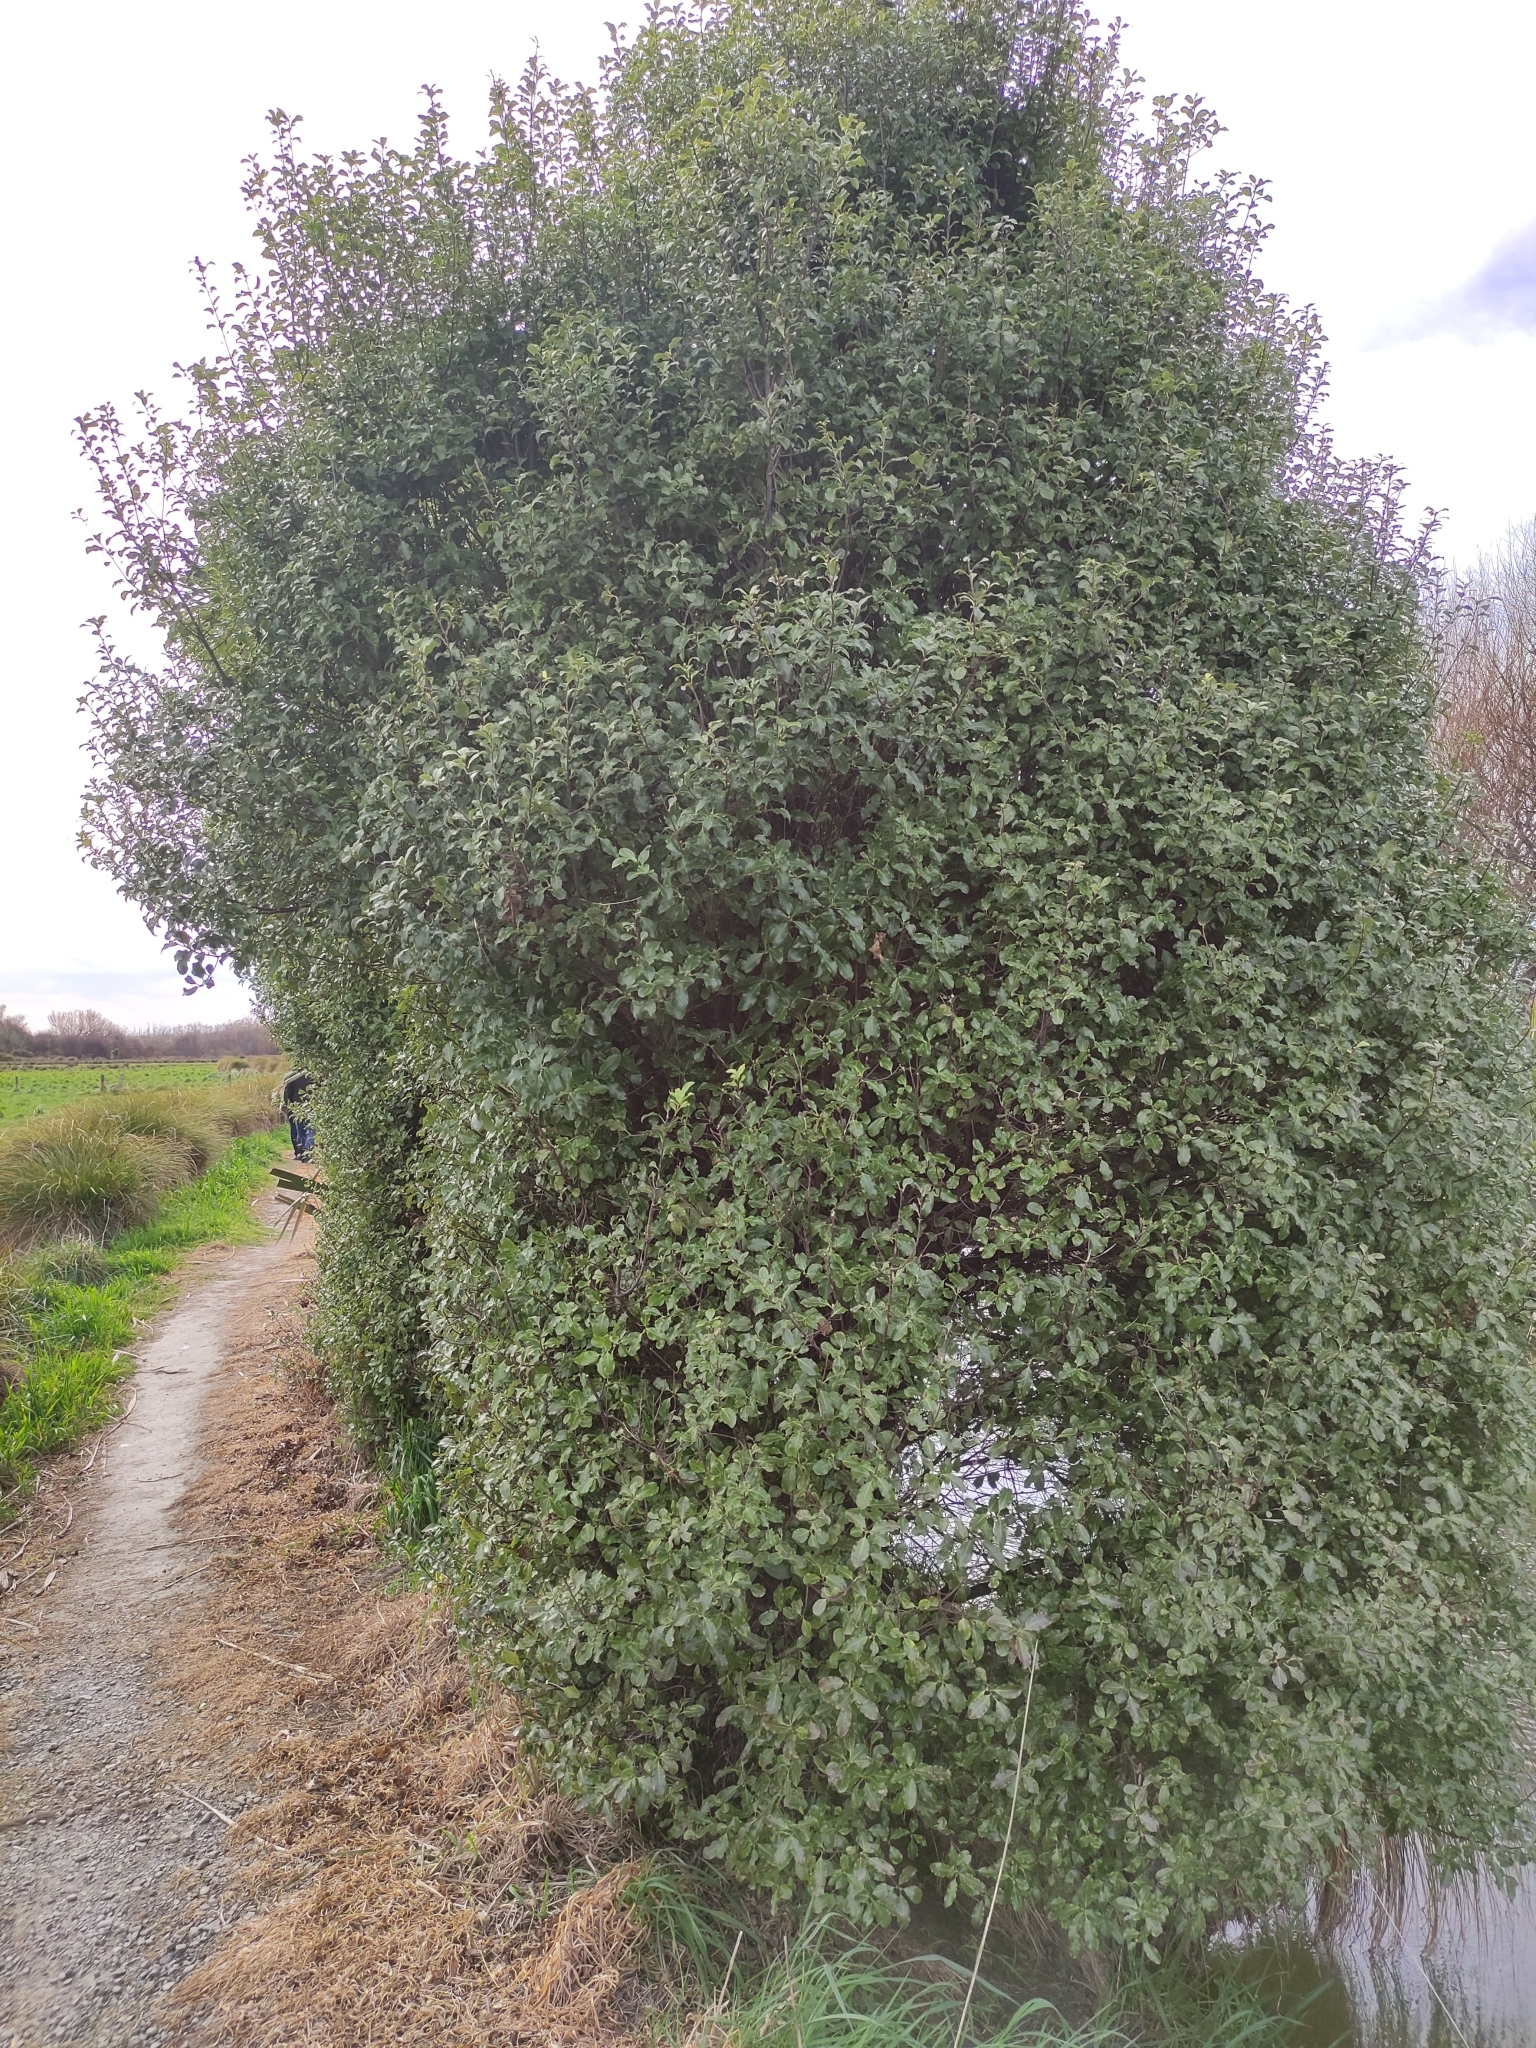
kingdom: Plantae
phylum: Tracheophyta
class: Magnoliopsida
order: Apiales
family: Pittosporaceae
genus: Pittosporum
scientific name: Pittosporum tenuifolium
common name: Kohuhu
